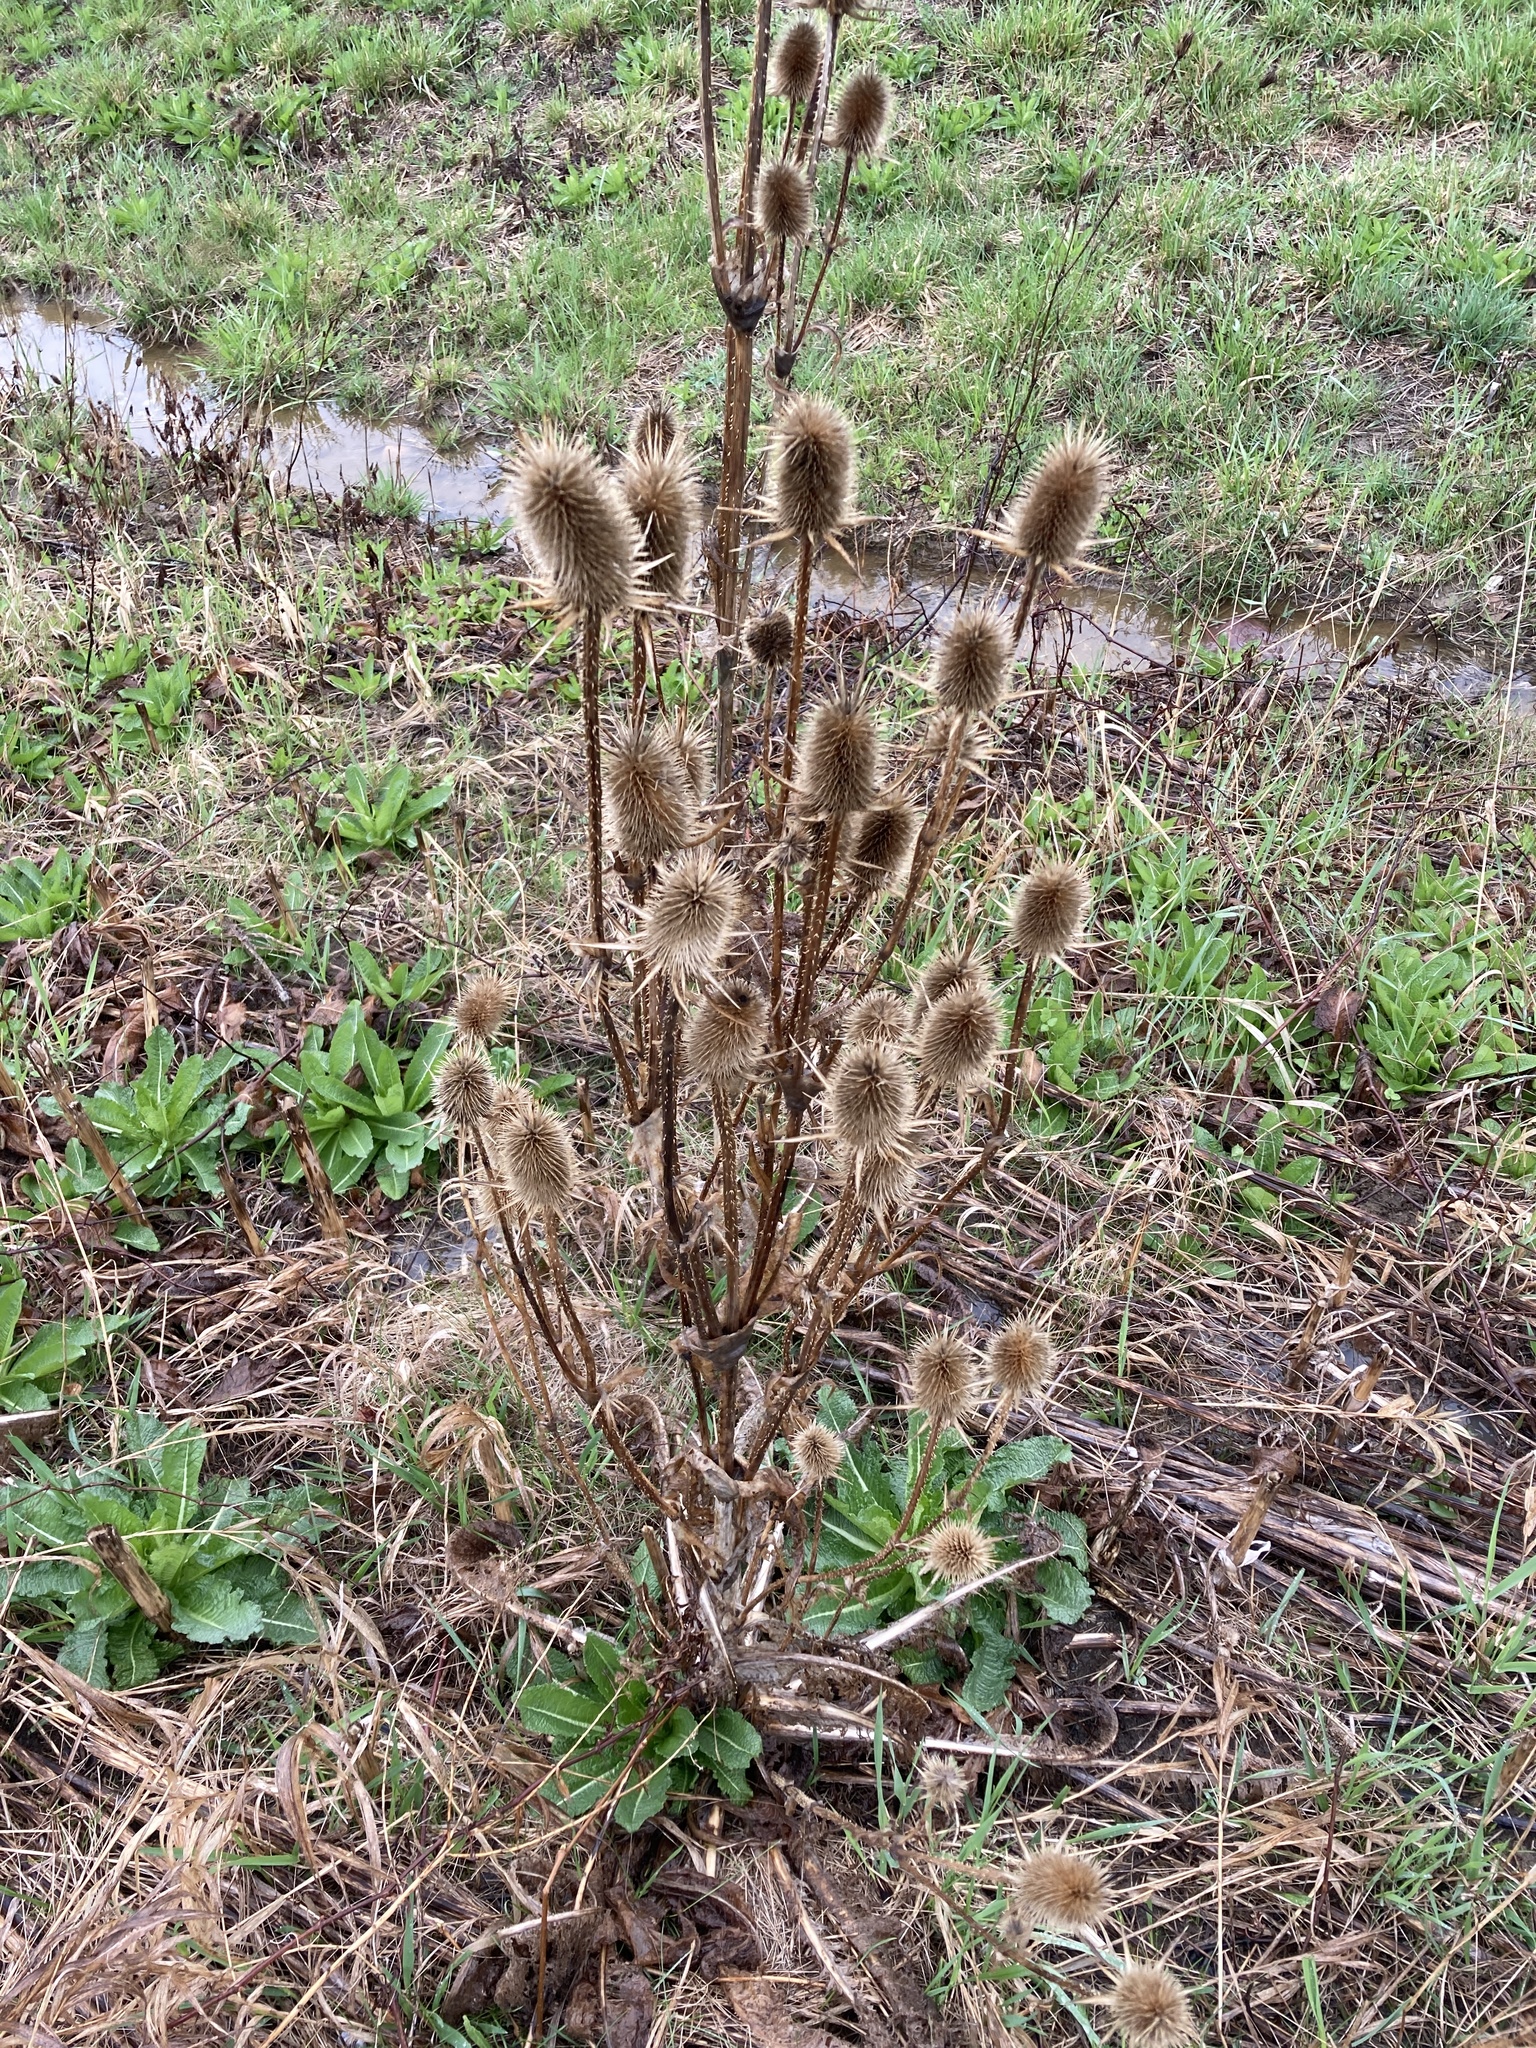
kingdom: Plantae
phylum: Tracheophyta
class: Magnoliopsida
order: Dipsacales
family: Caprifoliaceae
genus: Dipsacus
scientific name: Dipsacus laciniatus
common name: Cut-leaved teasel
